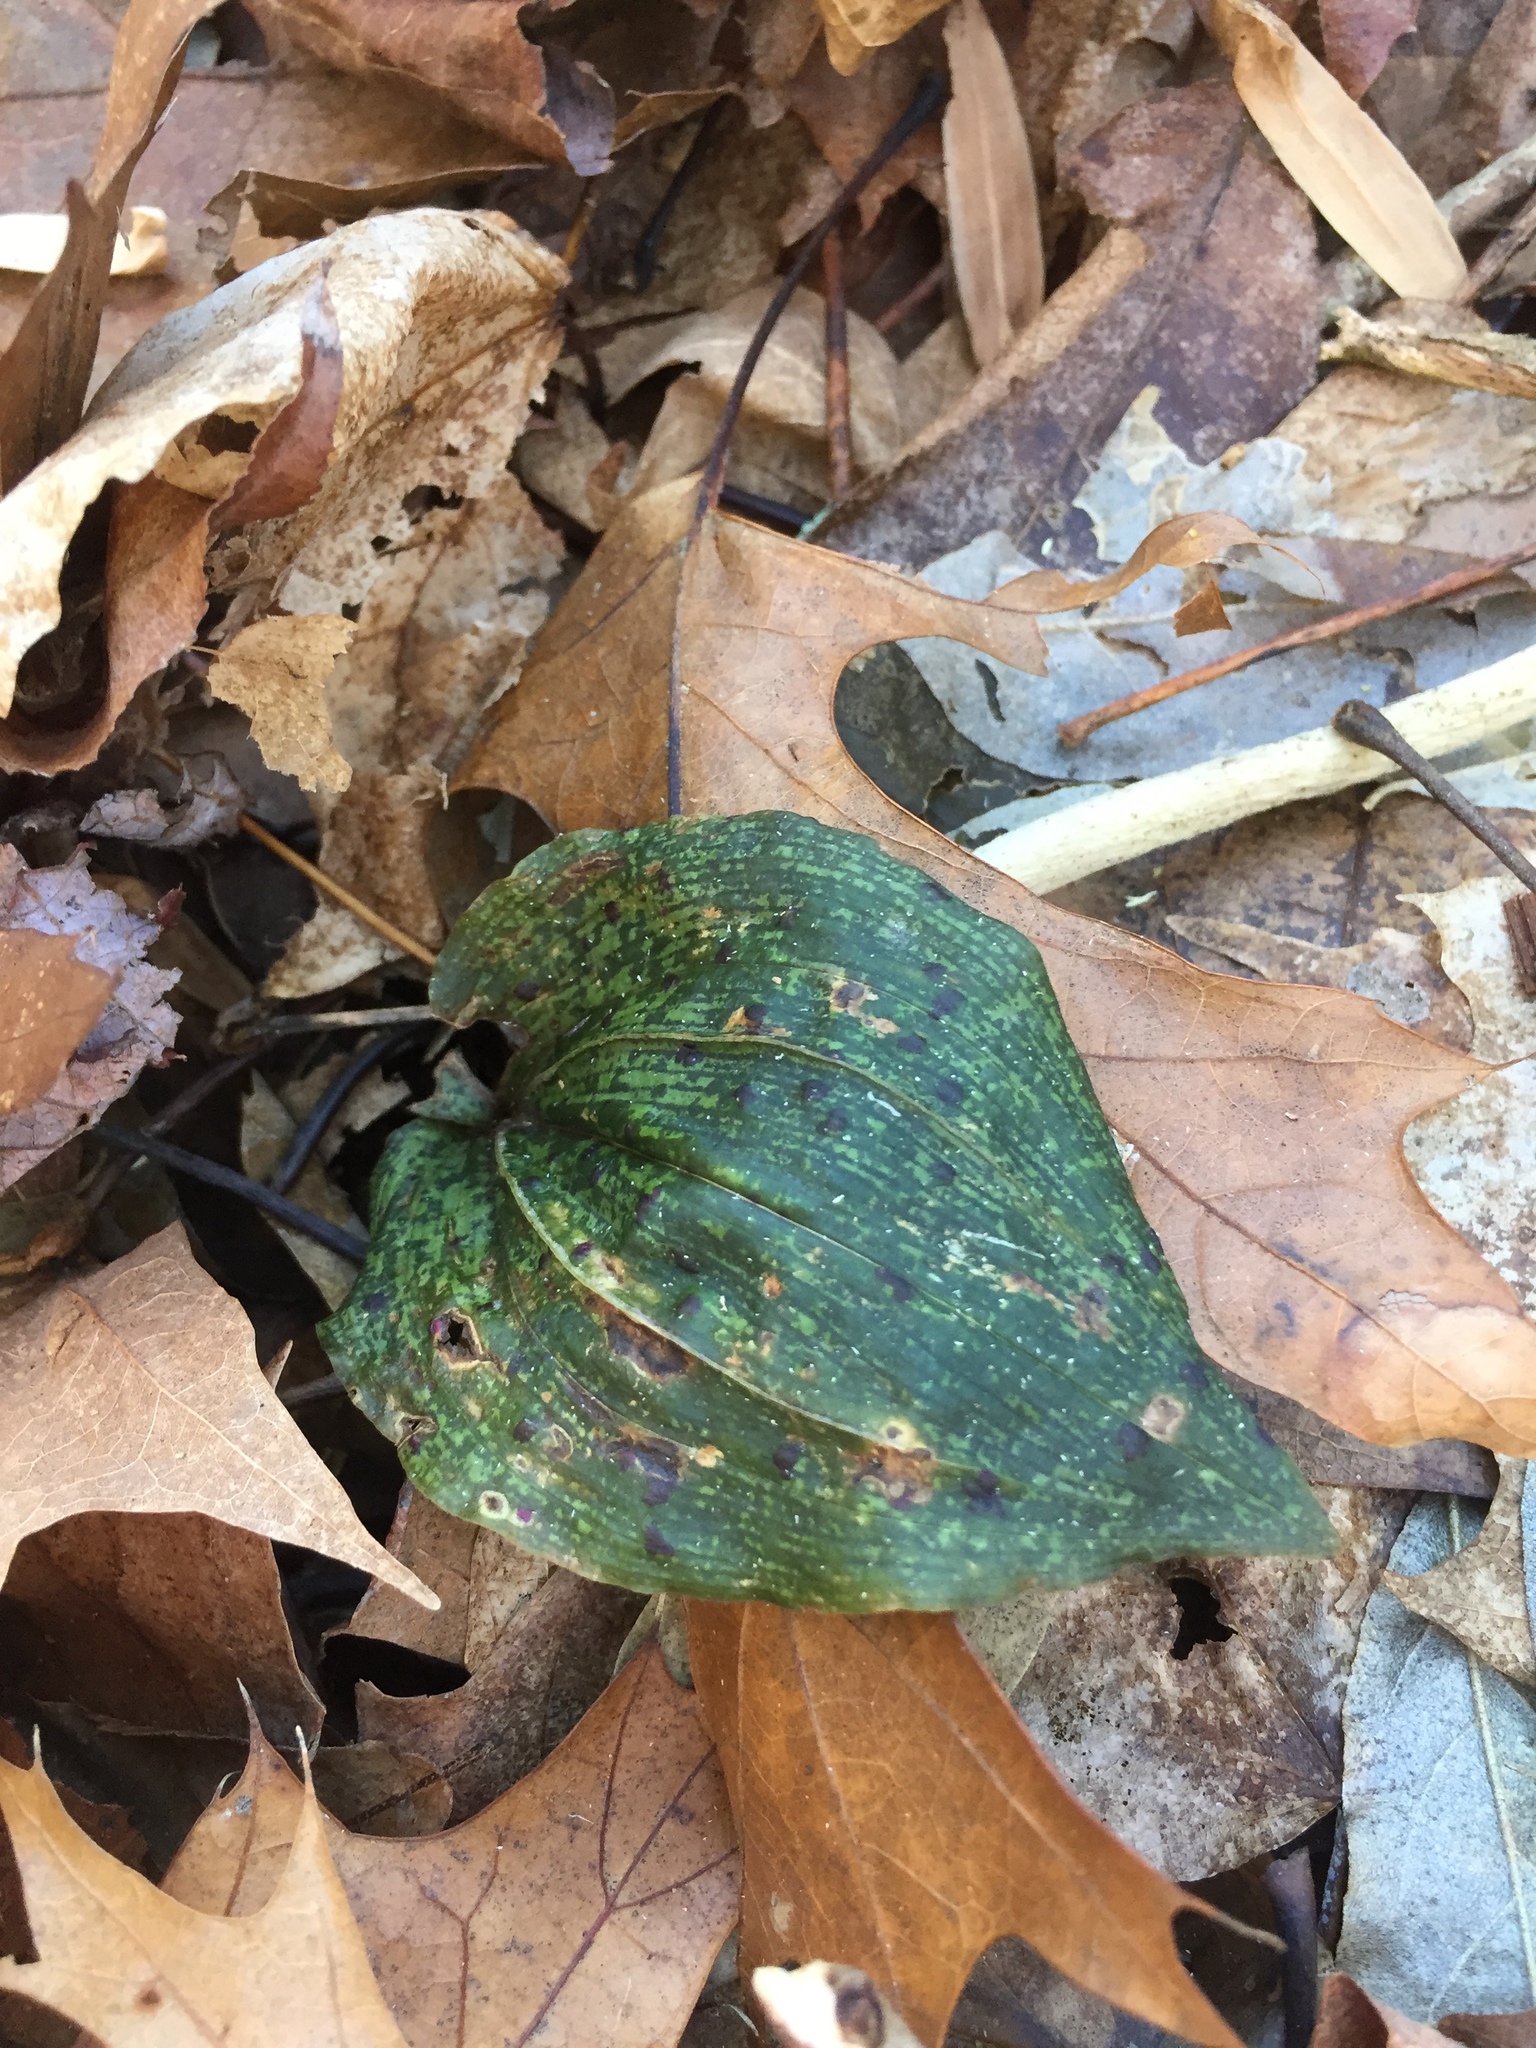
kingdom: Plantae
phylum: Tracheophyta
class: Liliopsida
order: Asparagales
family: Orchidaceae
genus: Tipularia
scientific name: Tipularia discolor
